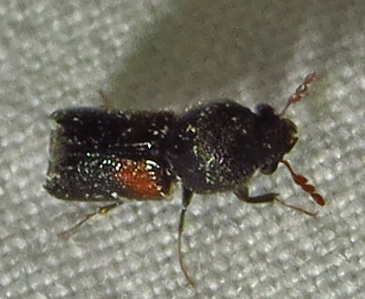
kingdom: Animalia
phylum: Arthropoda
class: Insecta
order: Coleoptera
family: Bostrichidae
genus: Xylobiops
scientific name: Xylobiops basilaris
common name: Red-shouldered bostrichid
